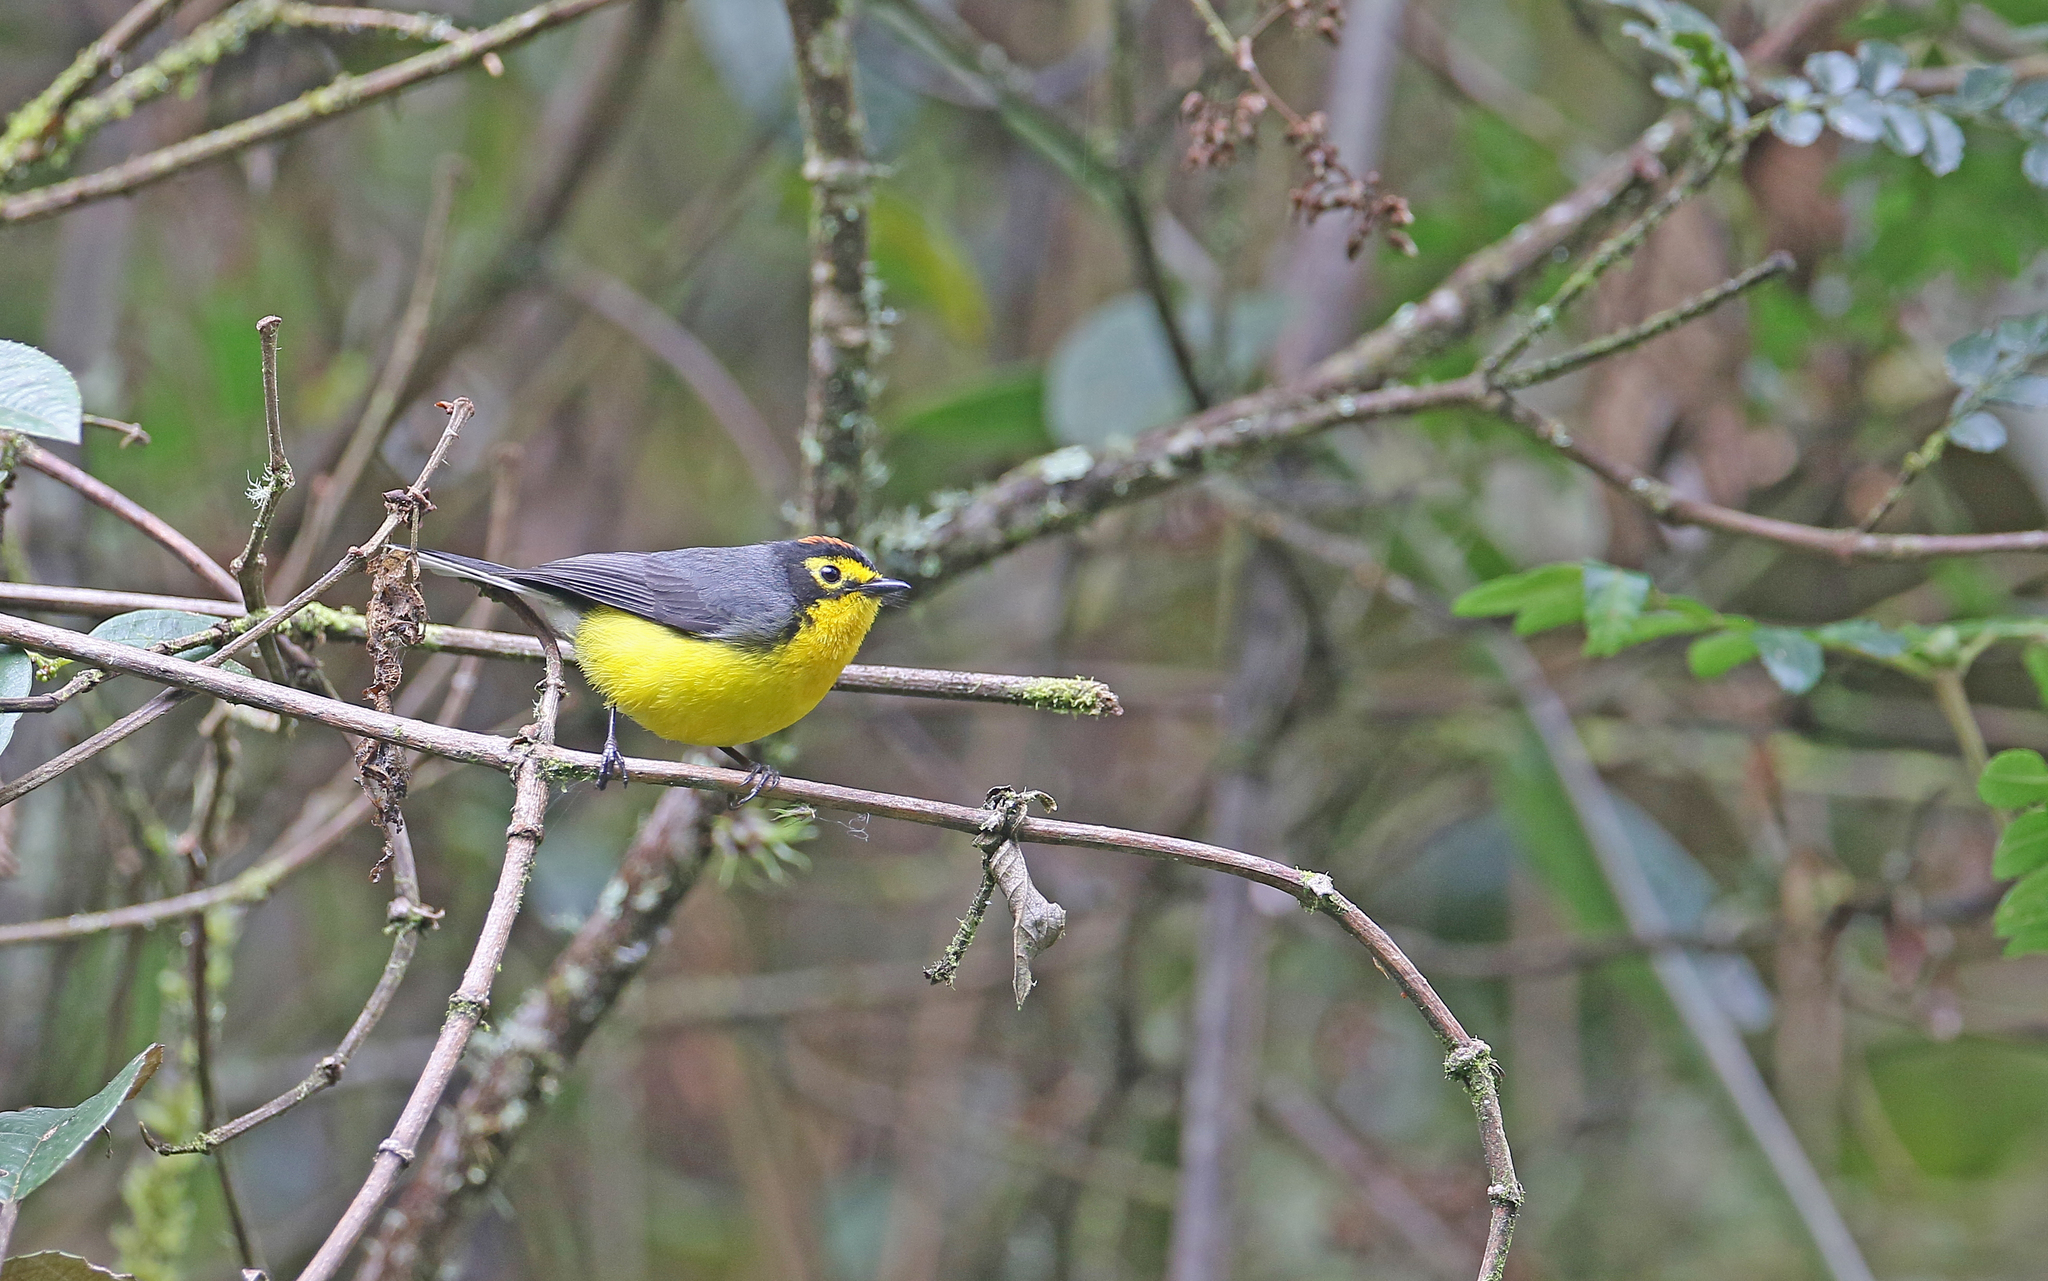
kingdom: Animalia
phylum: Chordata
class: Aves
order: Passeriformes
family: Parulidae
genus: Myioborus
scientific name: Myioborus melanocephalus
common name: Spectacled whitestart
